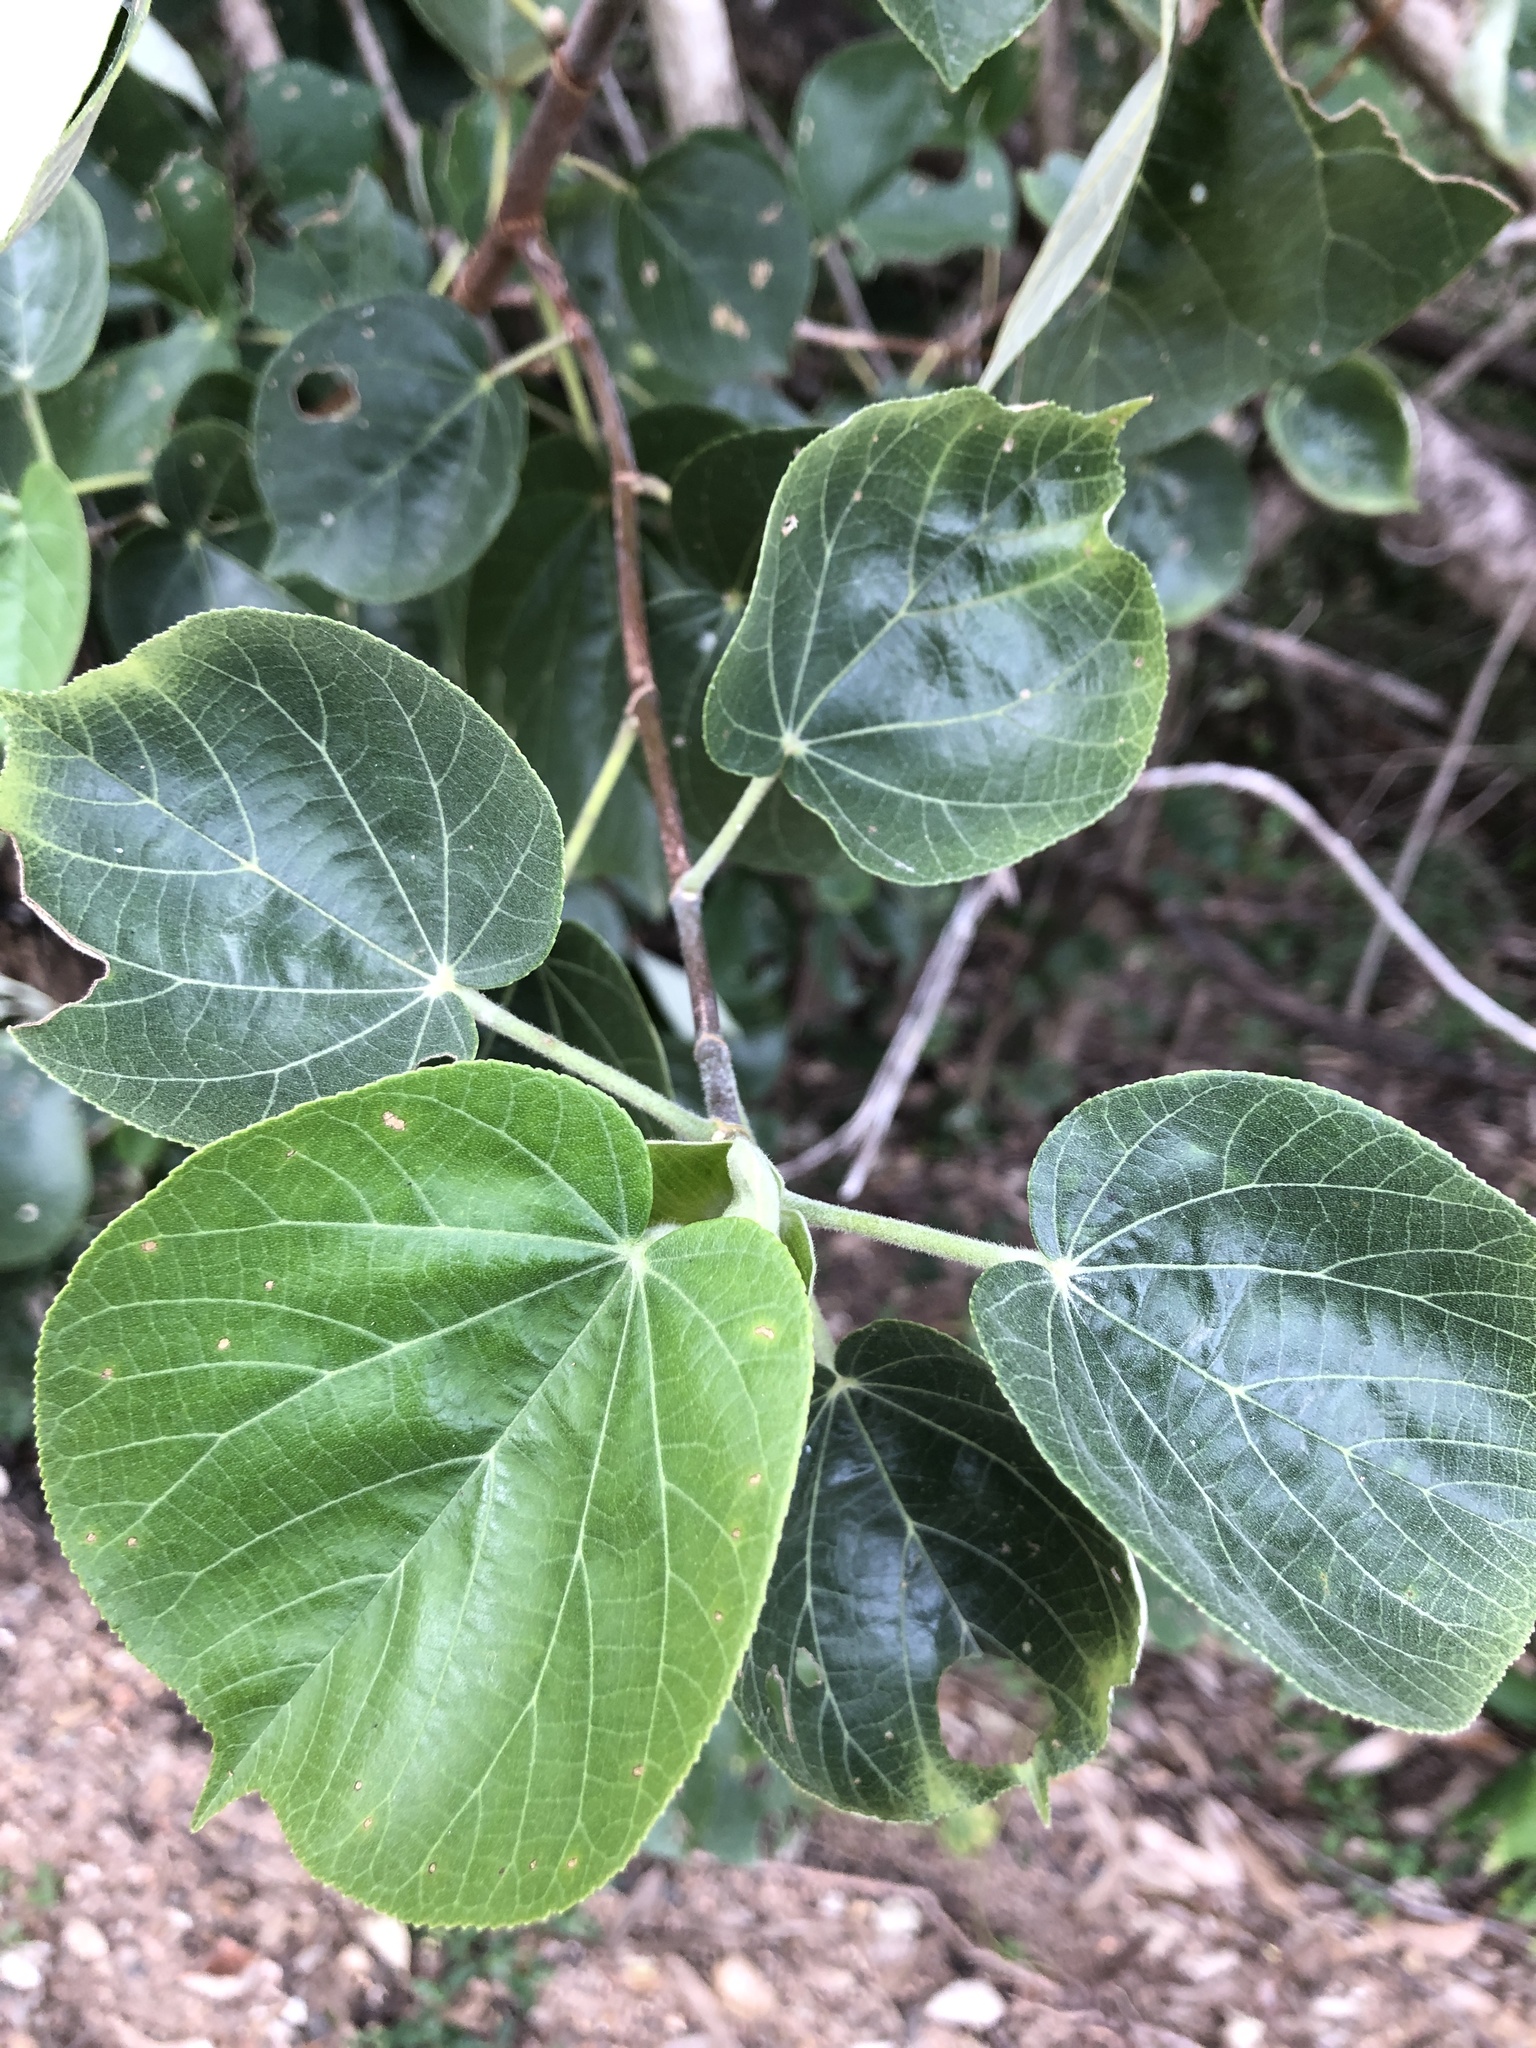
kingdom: Plantae
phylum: Tracheophyta
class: Magnoliopsida
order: Malvales
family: Malvaceae
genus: Talipariti
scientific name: Talipariti tiliaceum
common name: Sea hibiscus
